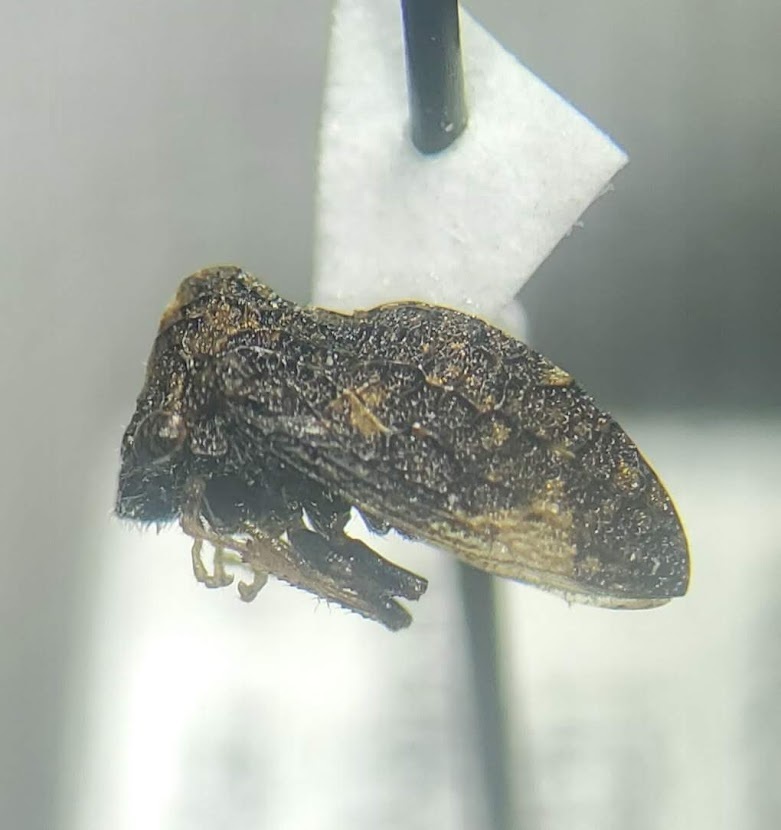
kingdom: Animalia
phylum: Arthropoda
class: Insecta
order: Hemiptera
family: Membracidae
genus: Publilia
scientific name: Publilia reticulata
